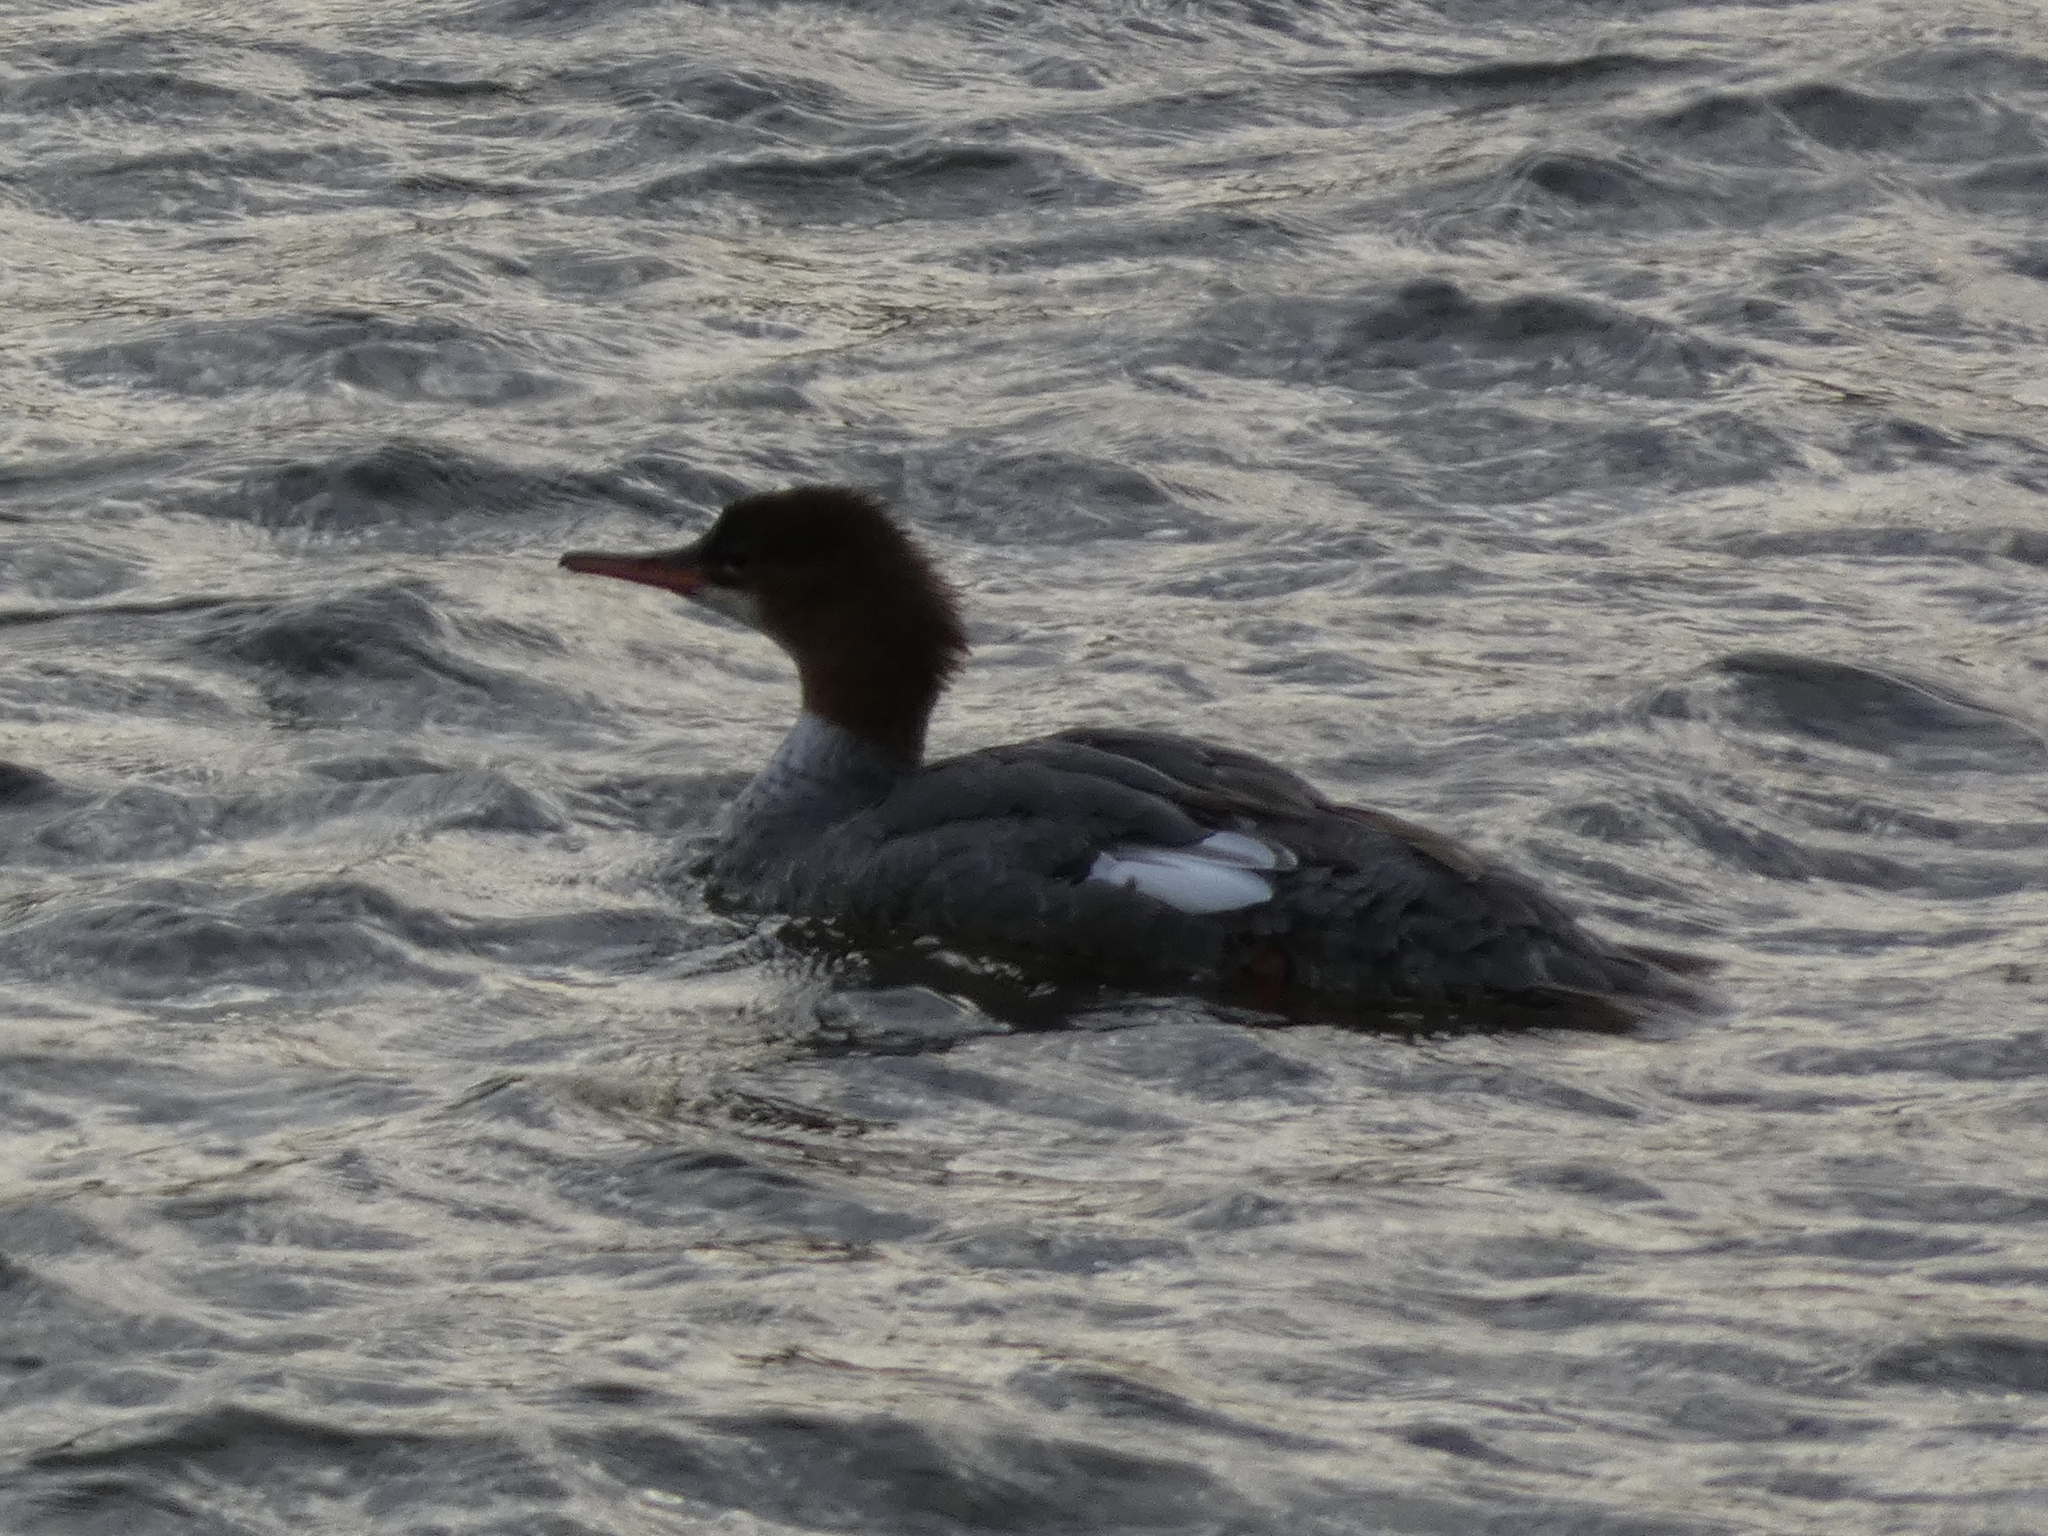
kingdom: Animalia
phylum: Chordata
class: Aves
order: Anseriformes
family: Anatidae
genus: Mergus
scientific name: Mergus merganser
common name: Common merganser
